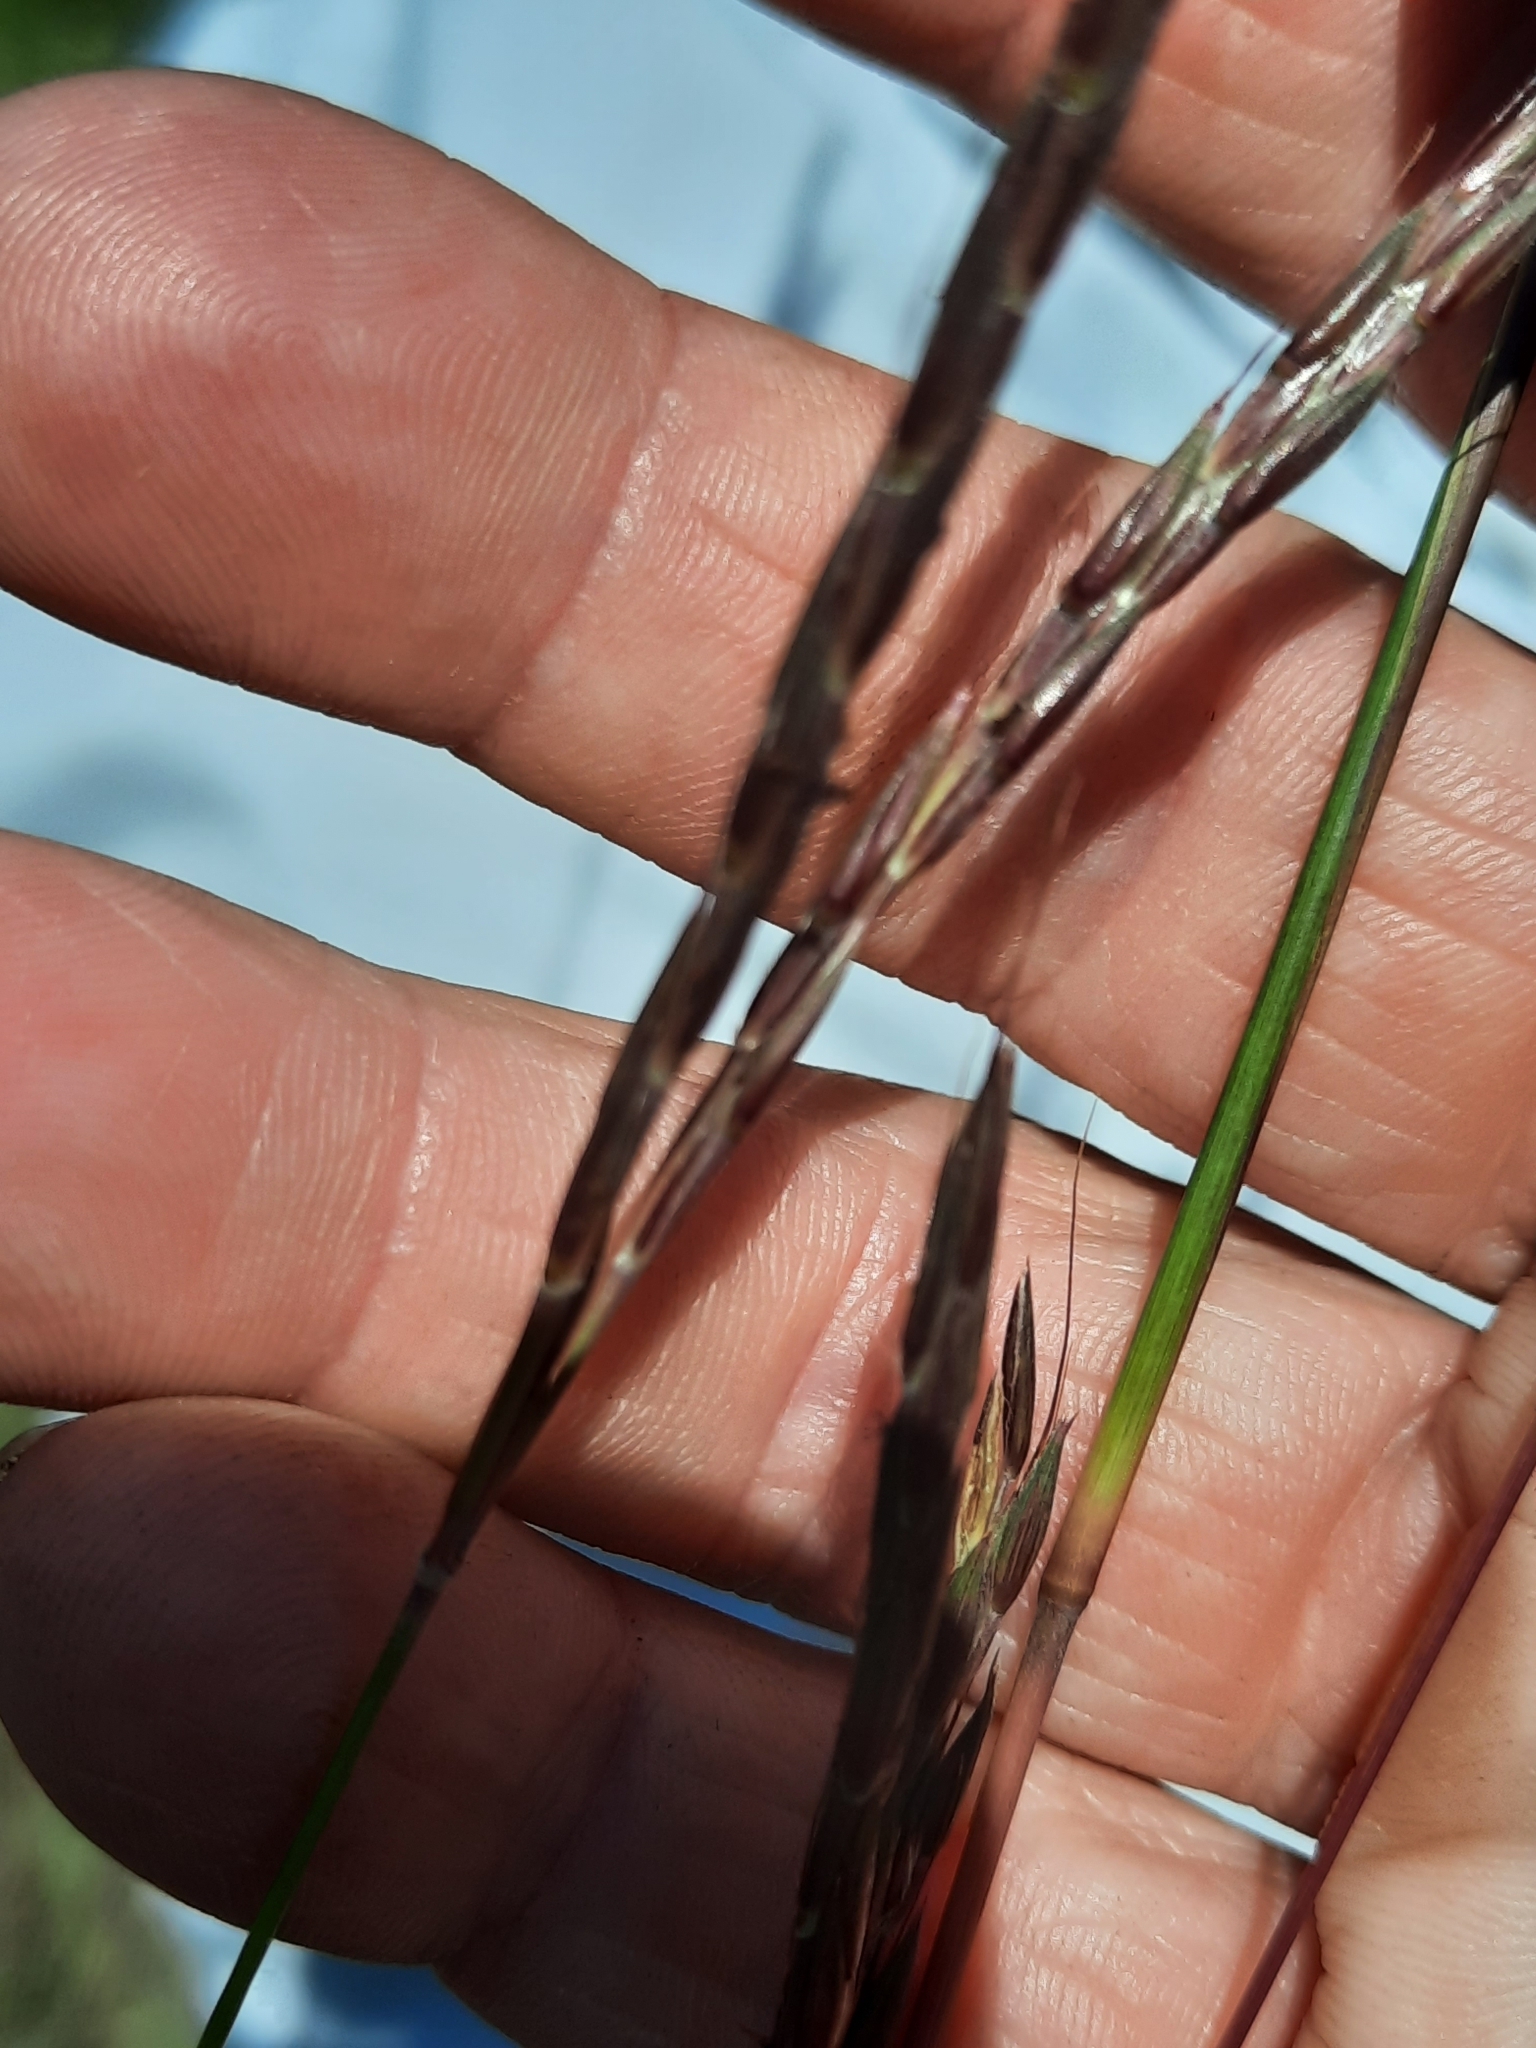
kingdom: Plantae
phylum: Tracheophyta
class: Liliopsida
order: Poales
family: Poaceae
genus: Andropogon
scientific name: Andropogon gerardi
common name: Big bluestem
